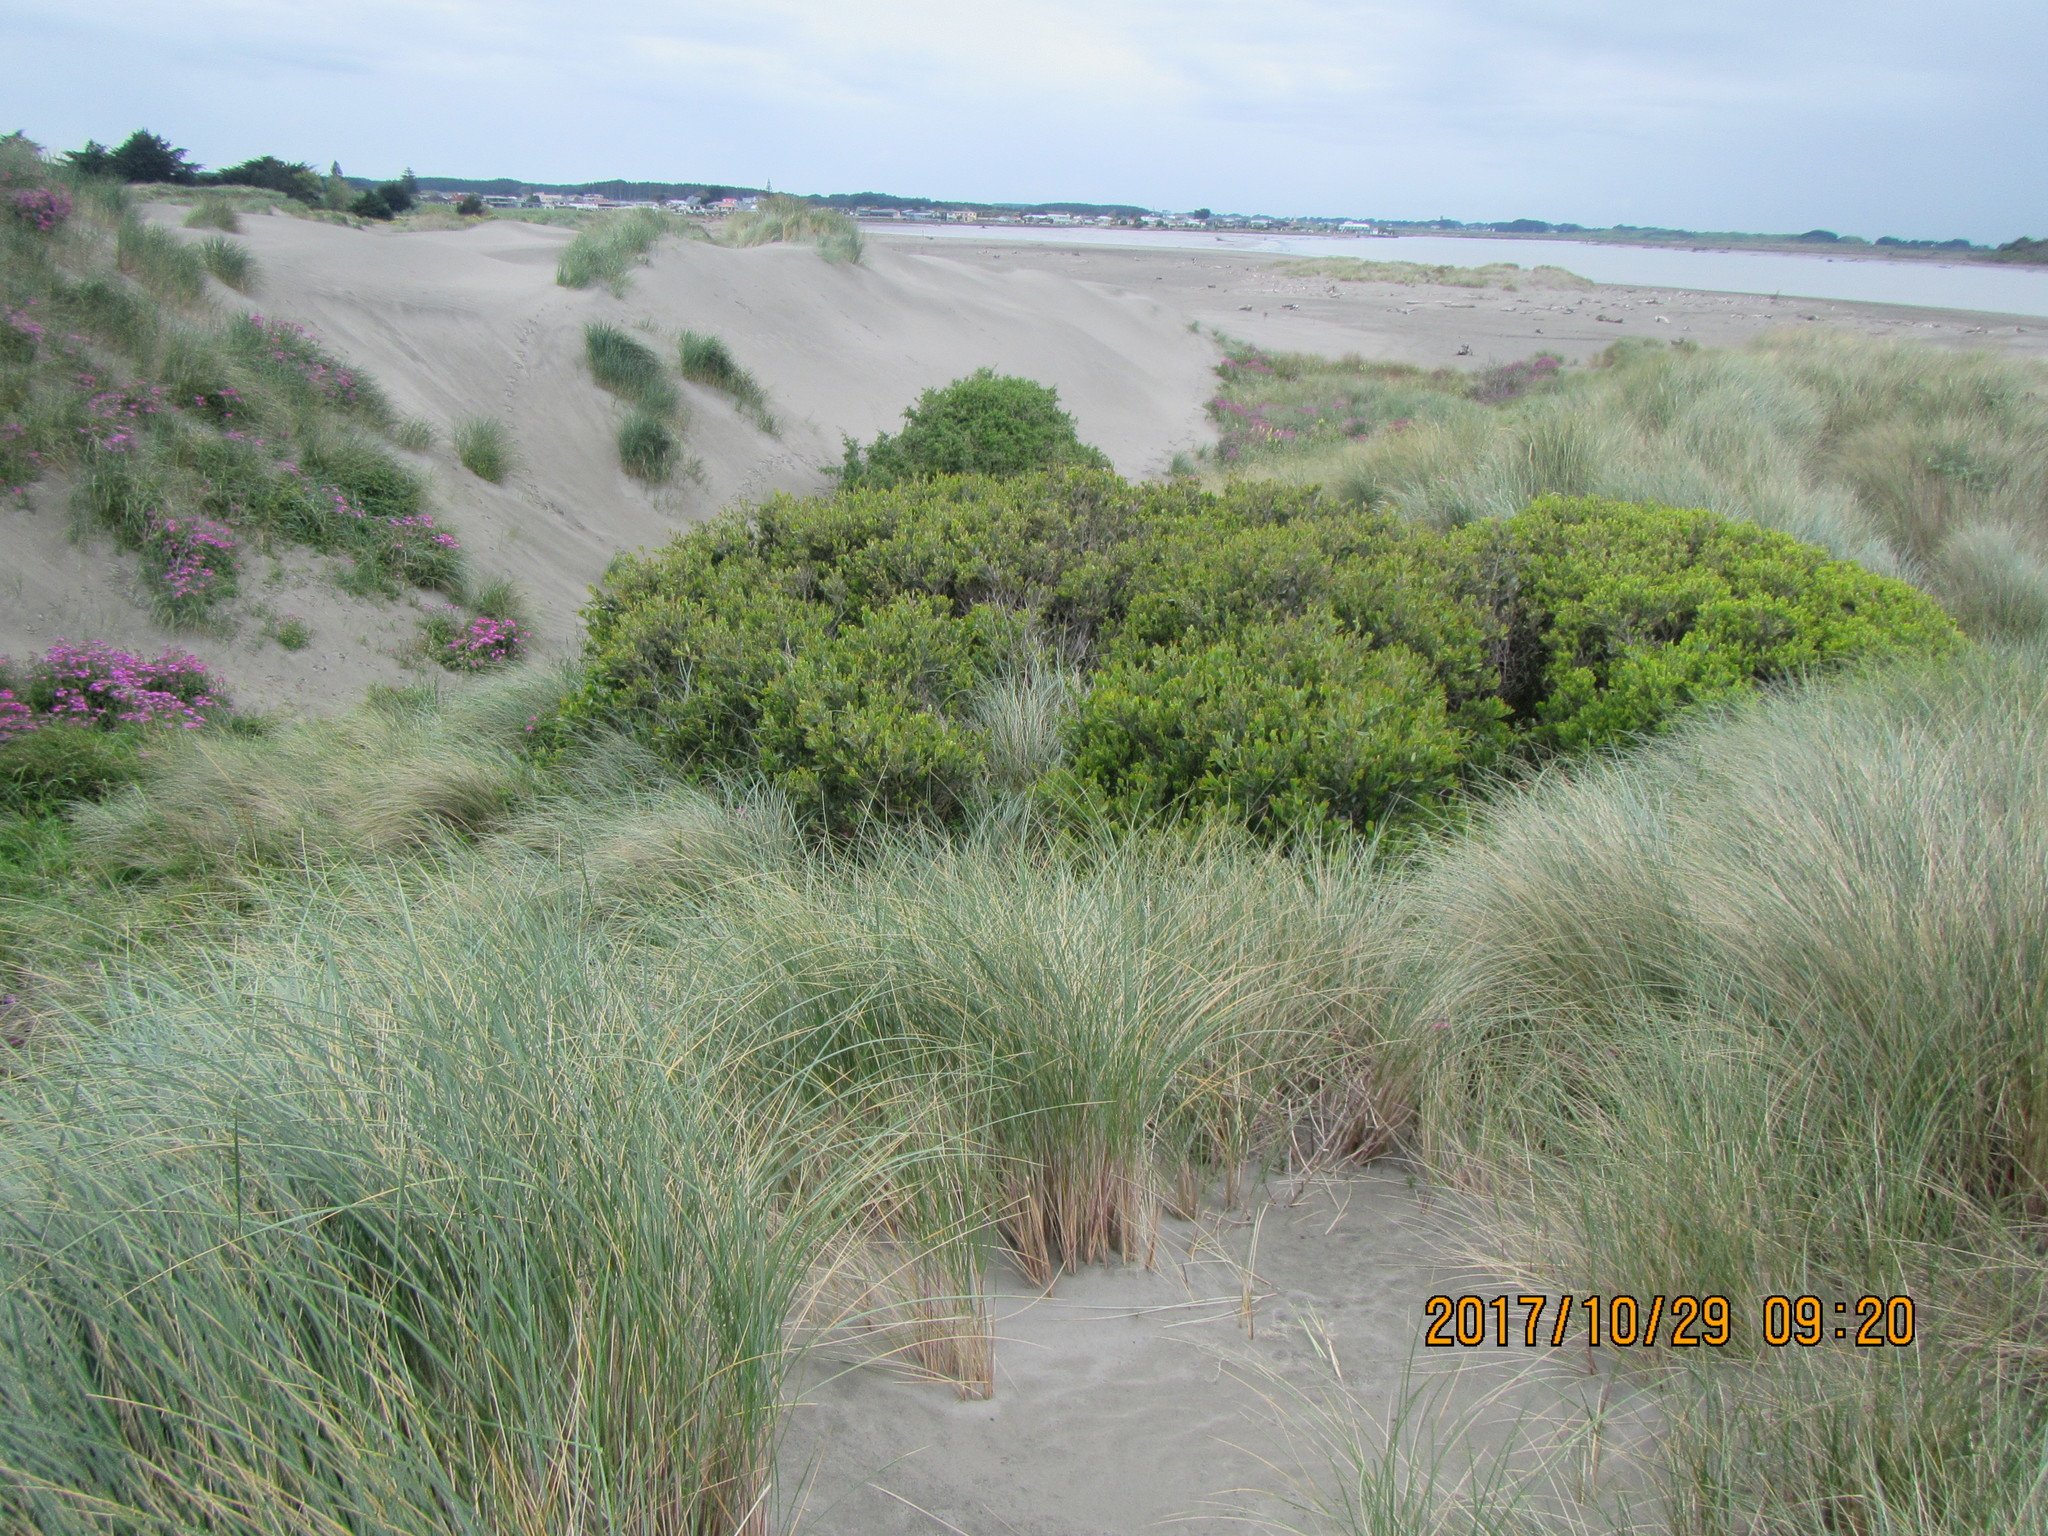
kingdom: Plantae
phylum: Tracheophyta
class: Magnoliopsida
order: Fabales
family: Fabaceae
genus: Acacia
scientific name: Acacia longifolia
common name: Sydney golden wattle
